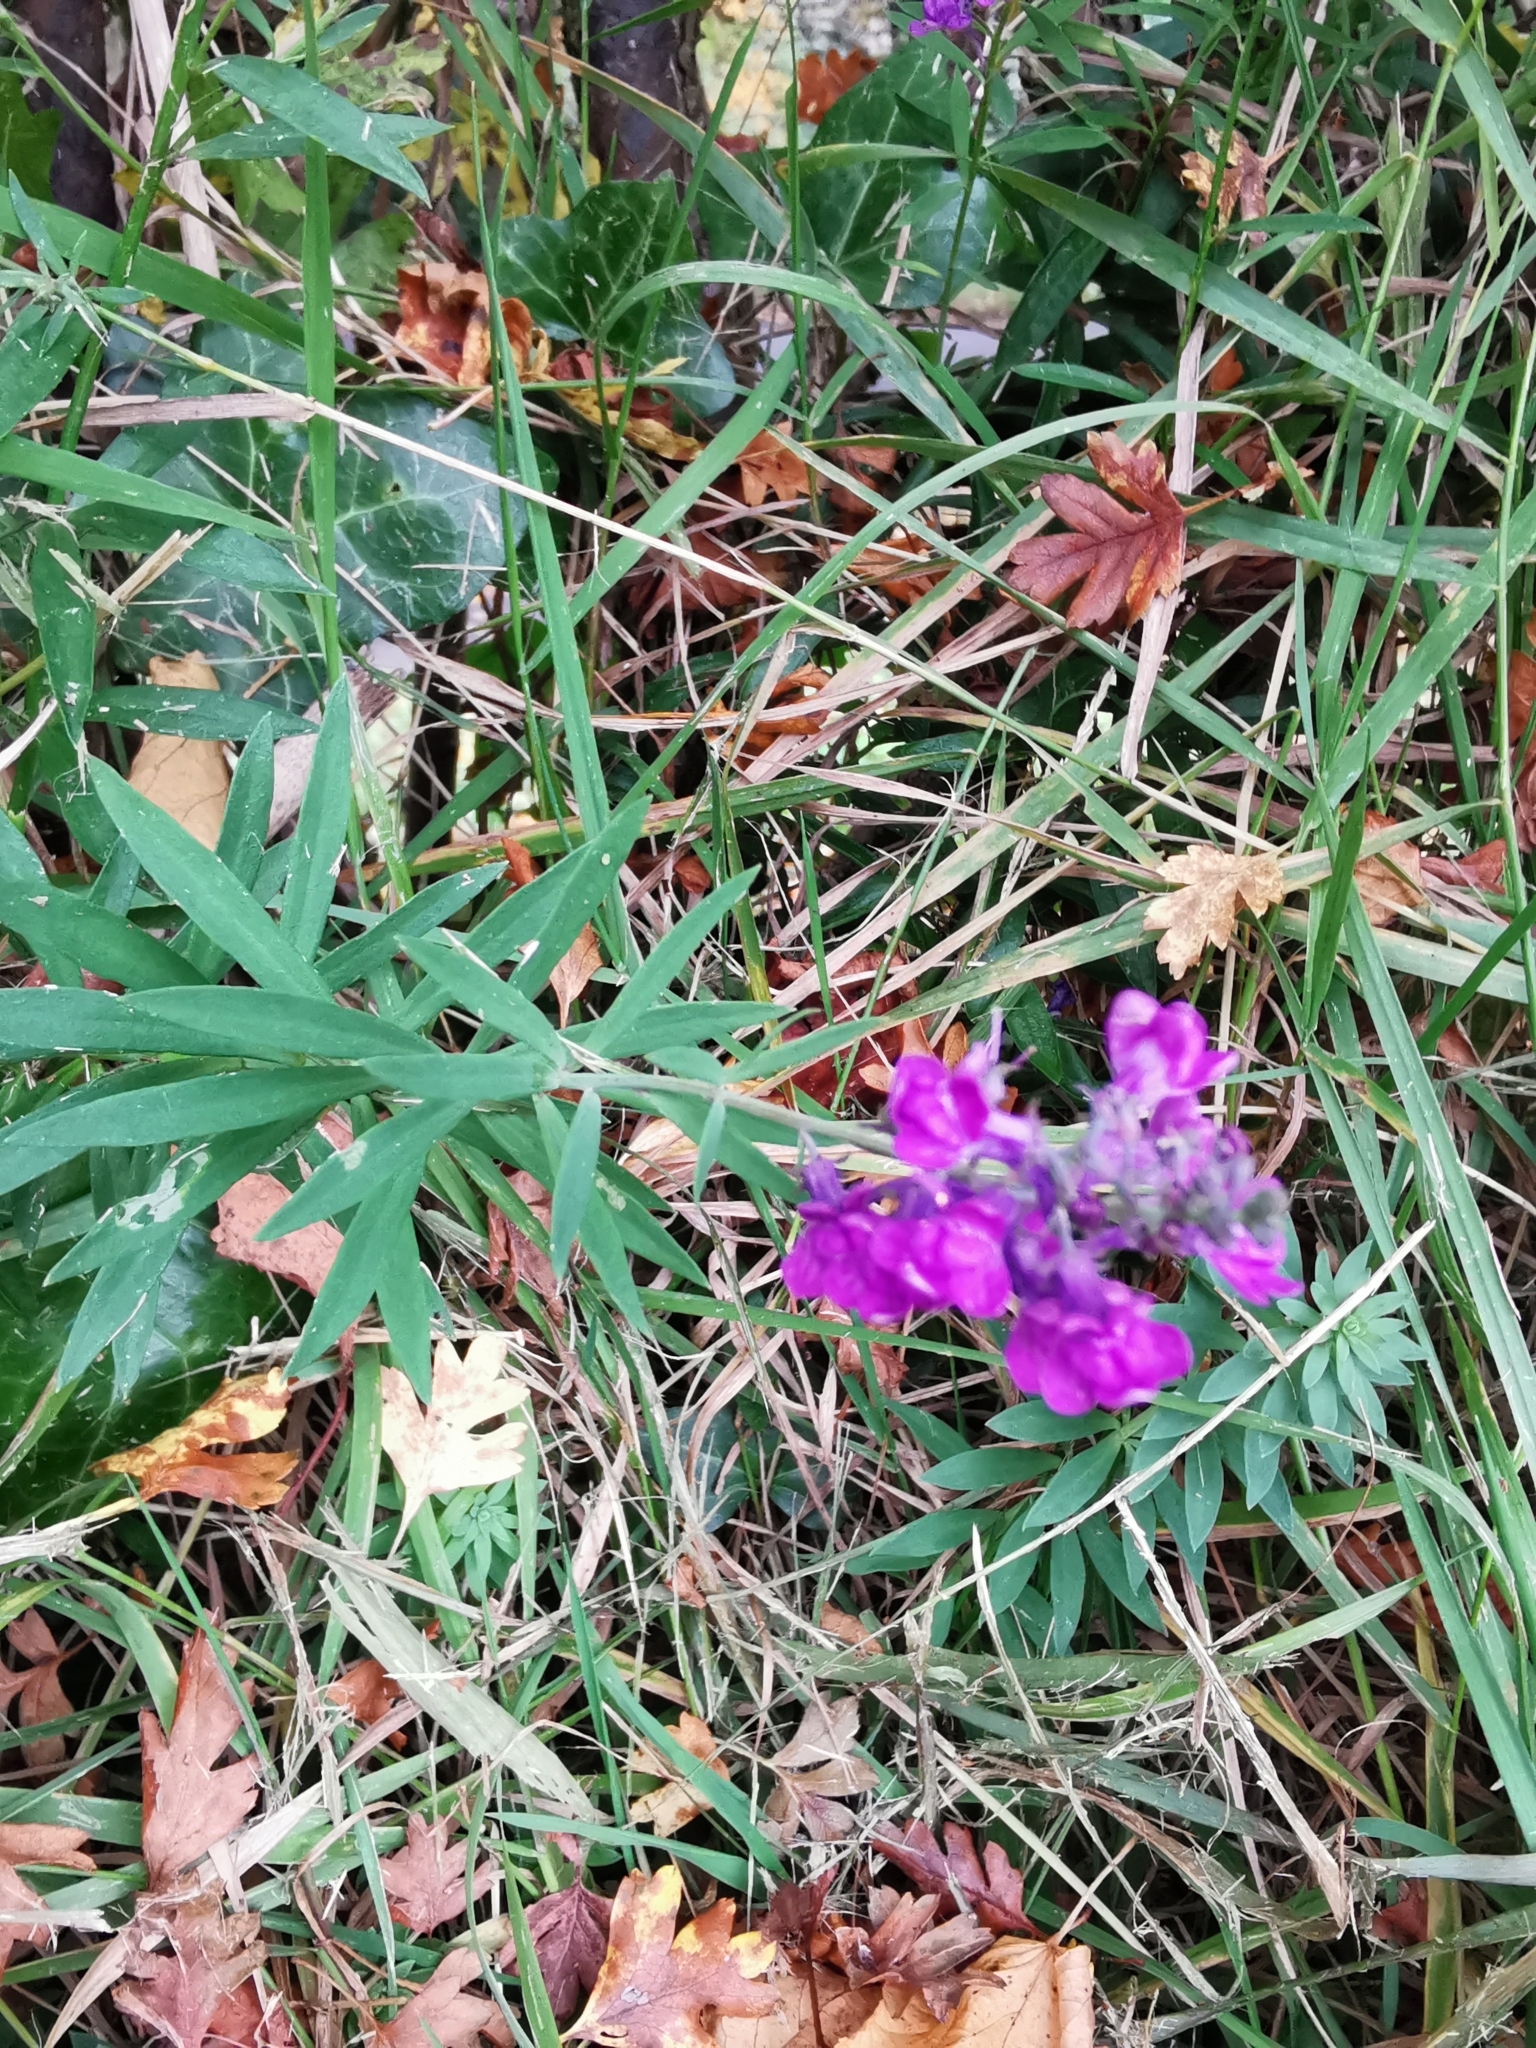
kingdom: Plantae
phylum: Tracheophyta
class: Magnoliopsida
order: Lamiales
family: Plantaginaceae
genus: Linaria
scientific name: Linaria purpurea
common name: Purple toadflax
